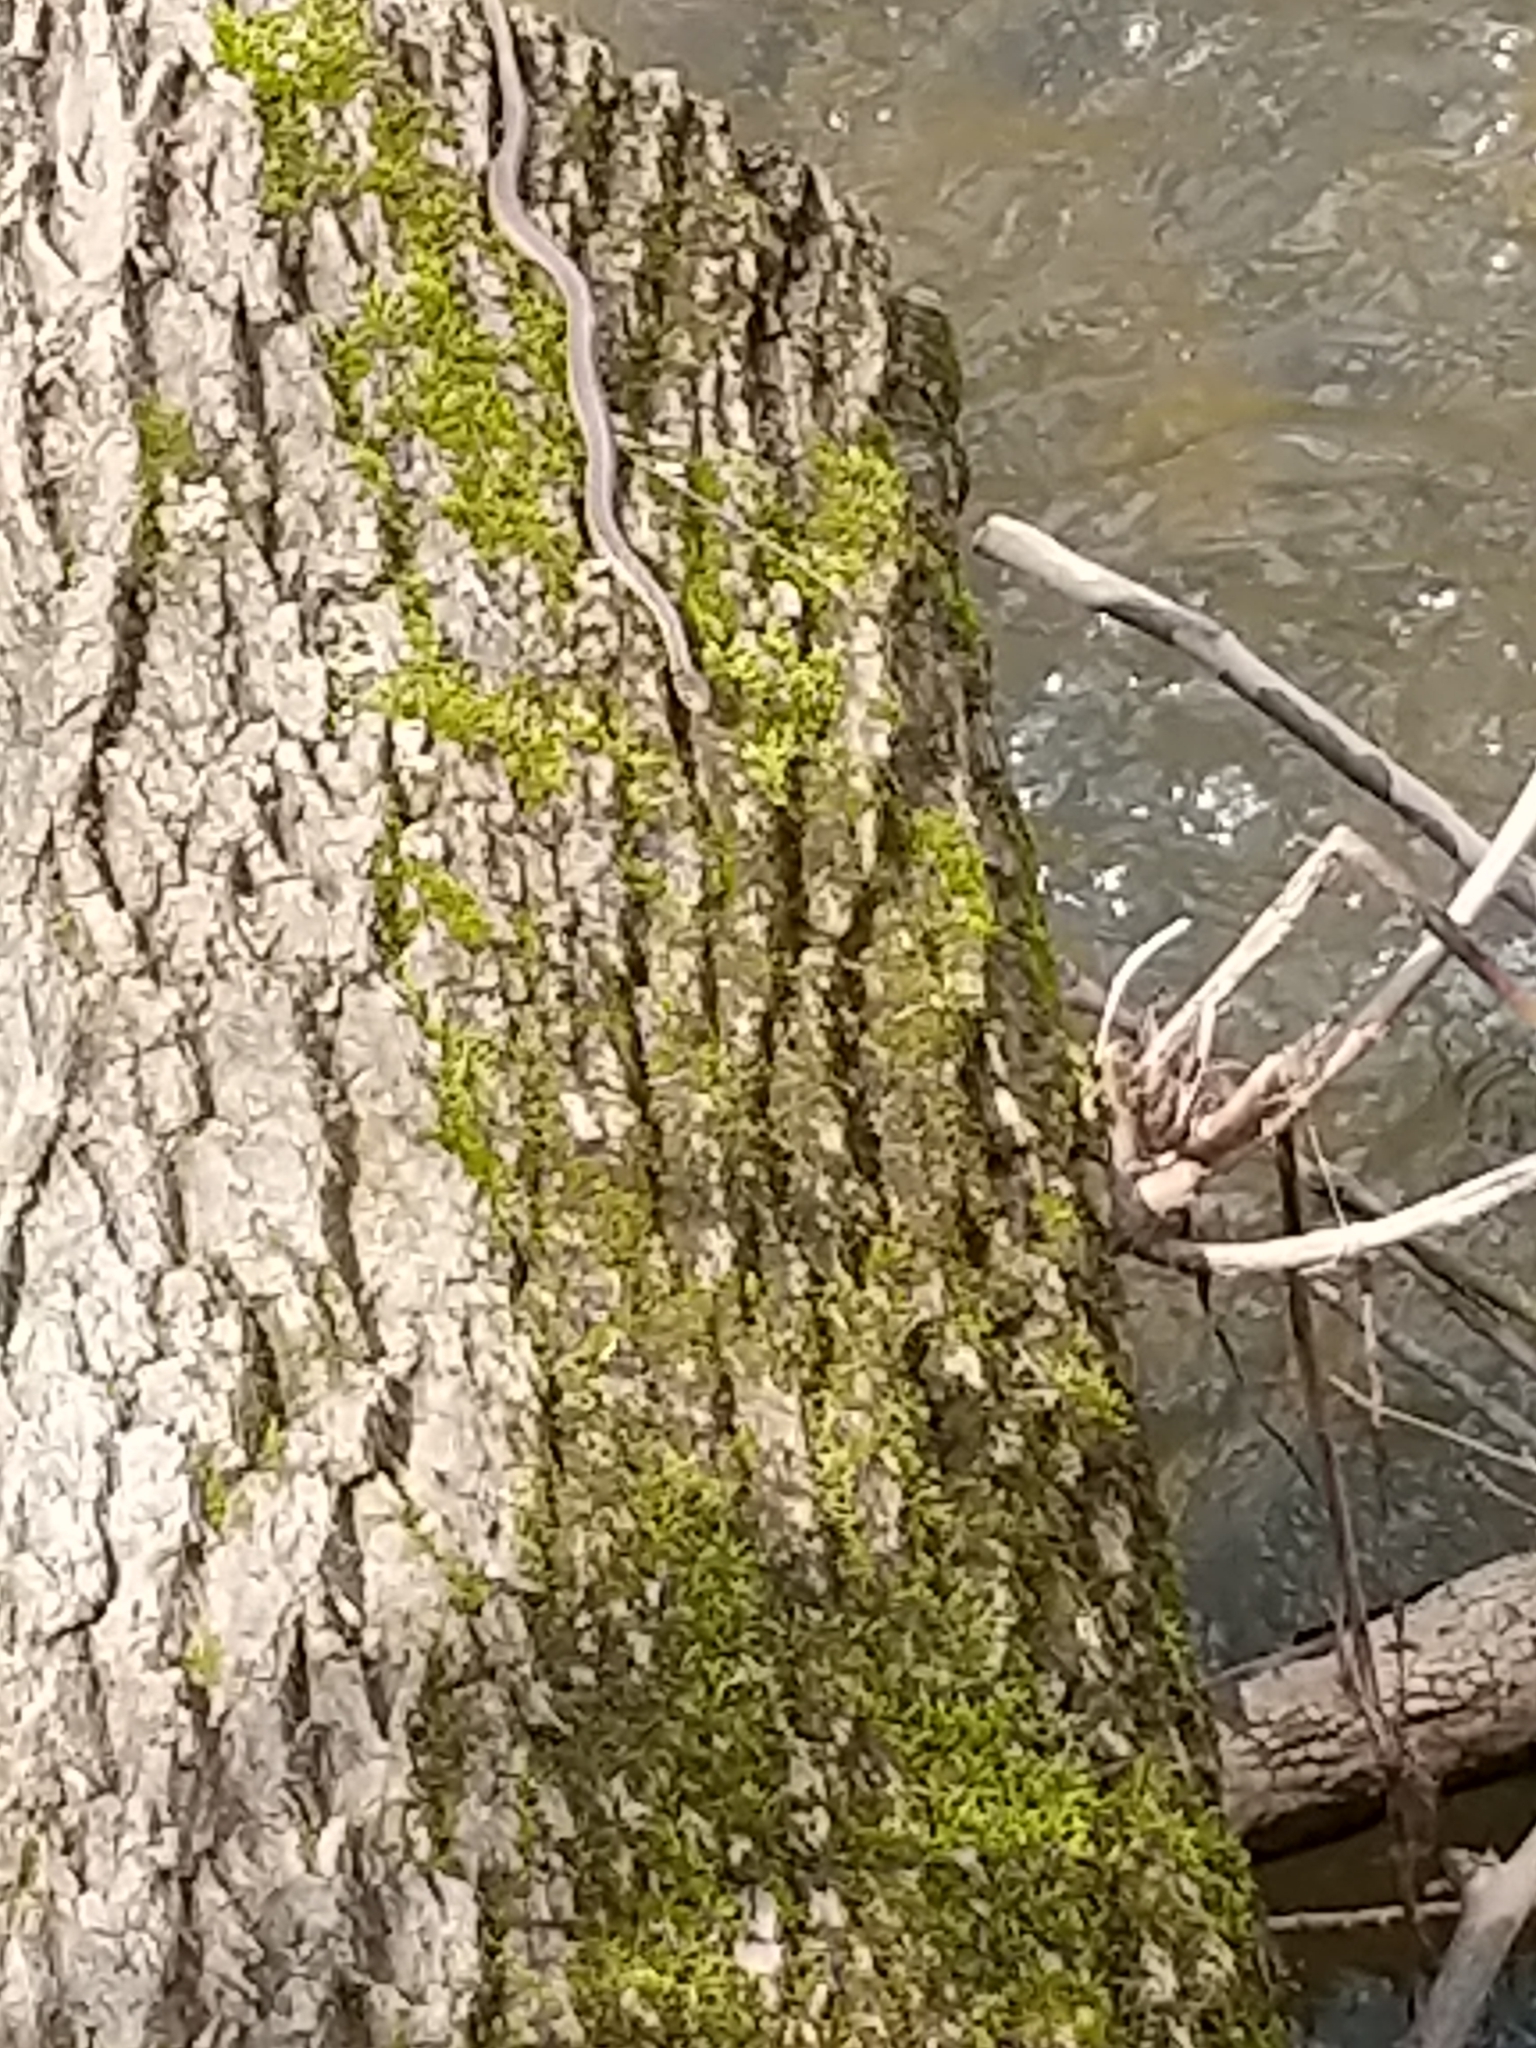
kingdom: Animalia
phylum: Chordata
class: Squamata
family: Colubridae
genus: Thamnophis
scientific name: Thamnophis sirtalis
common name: Common garter snake
